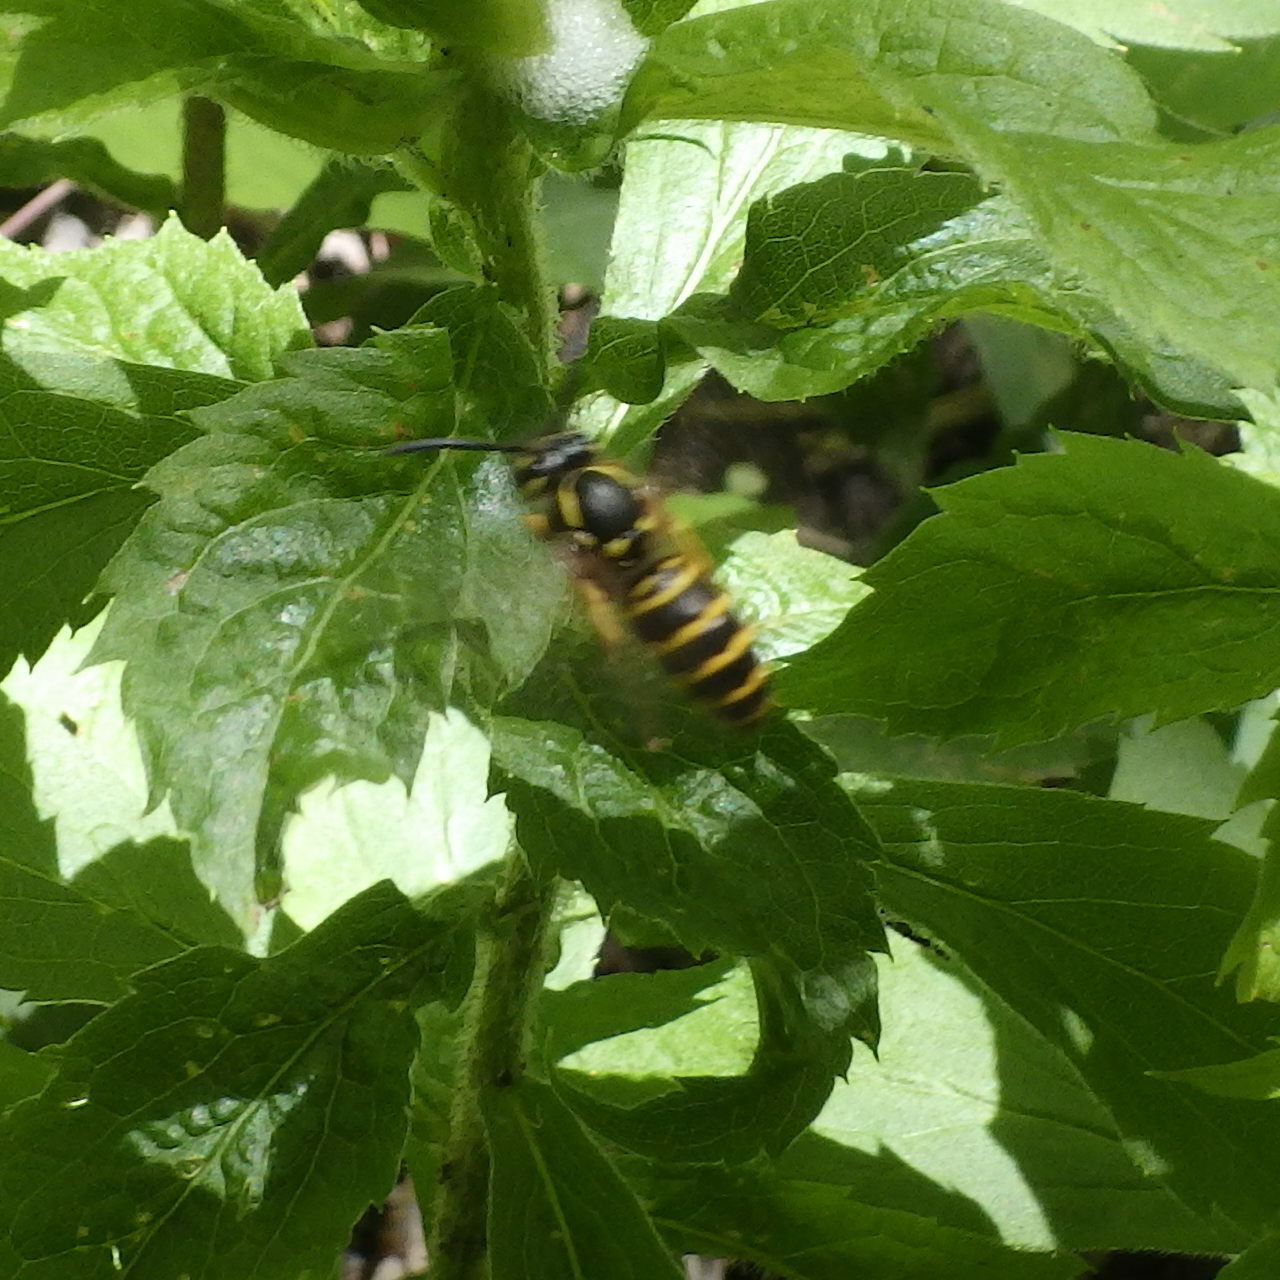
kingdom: Animalia
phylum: Arthropoda
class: Insecta
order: Hymenoptera
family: Vespidae
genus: Vespula
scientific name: Vespula maculifrons
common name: Eastern yellowjacket
